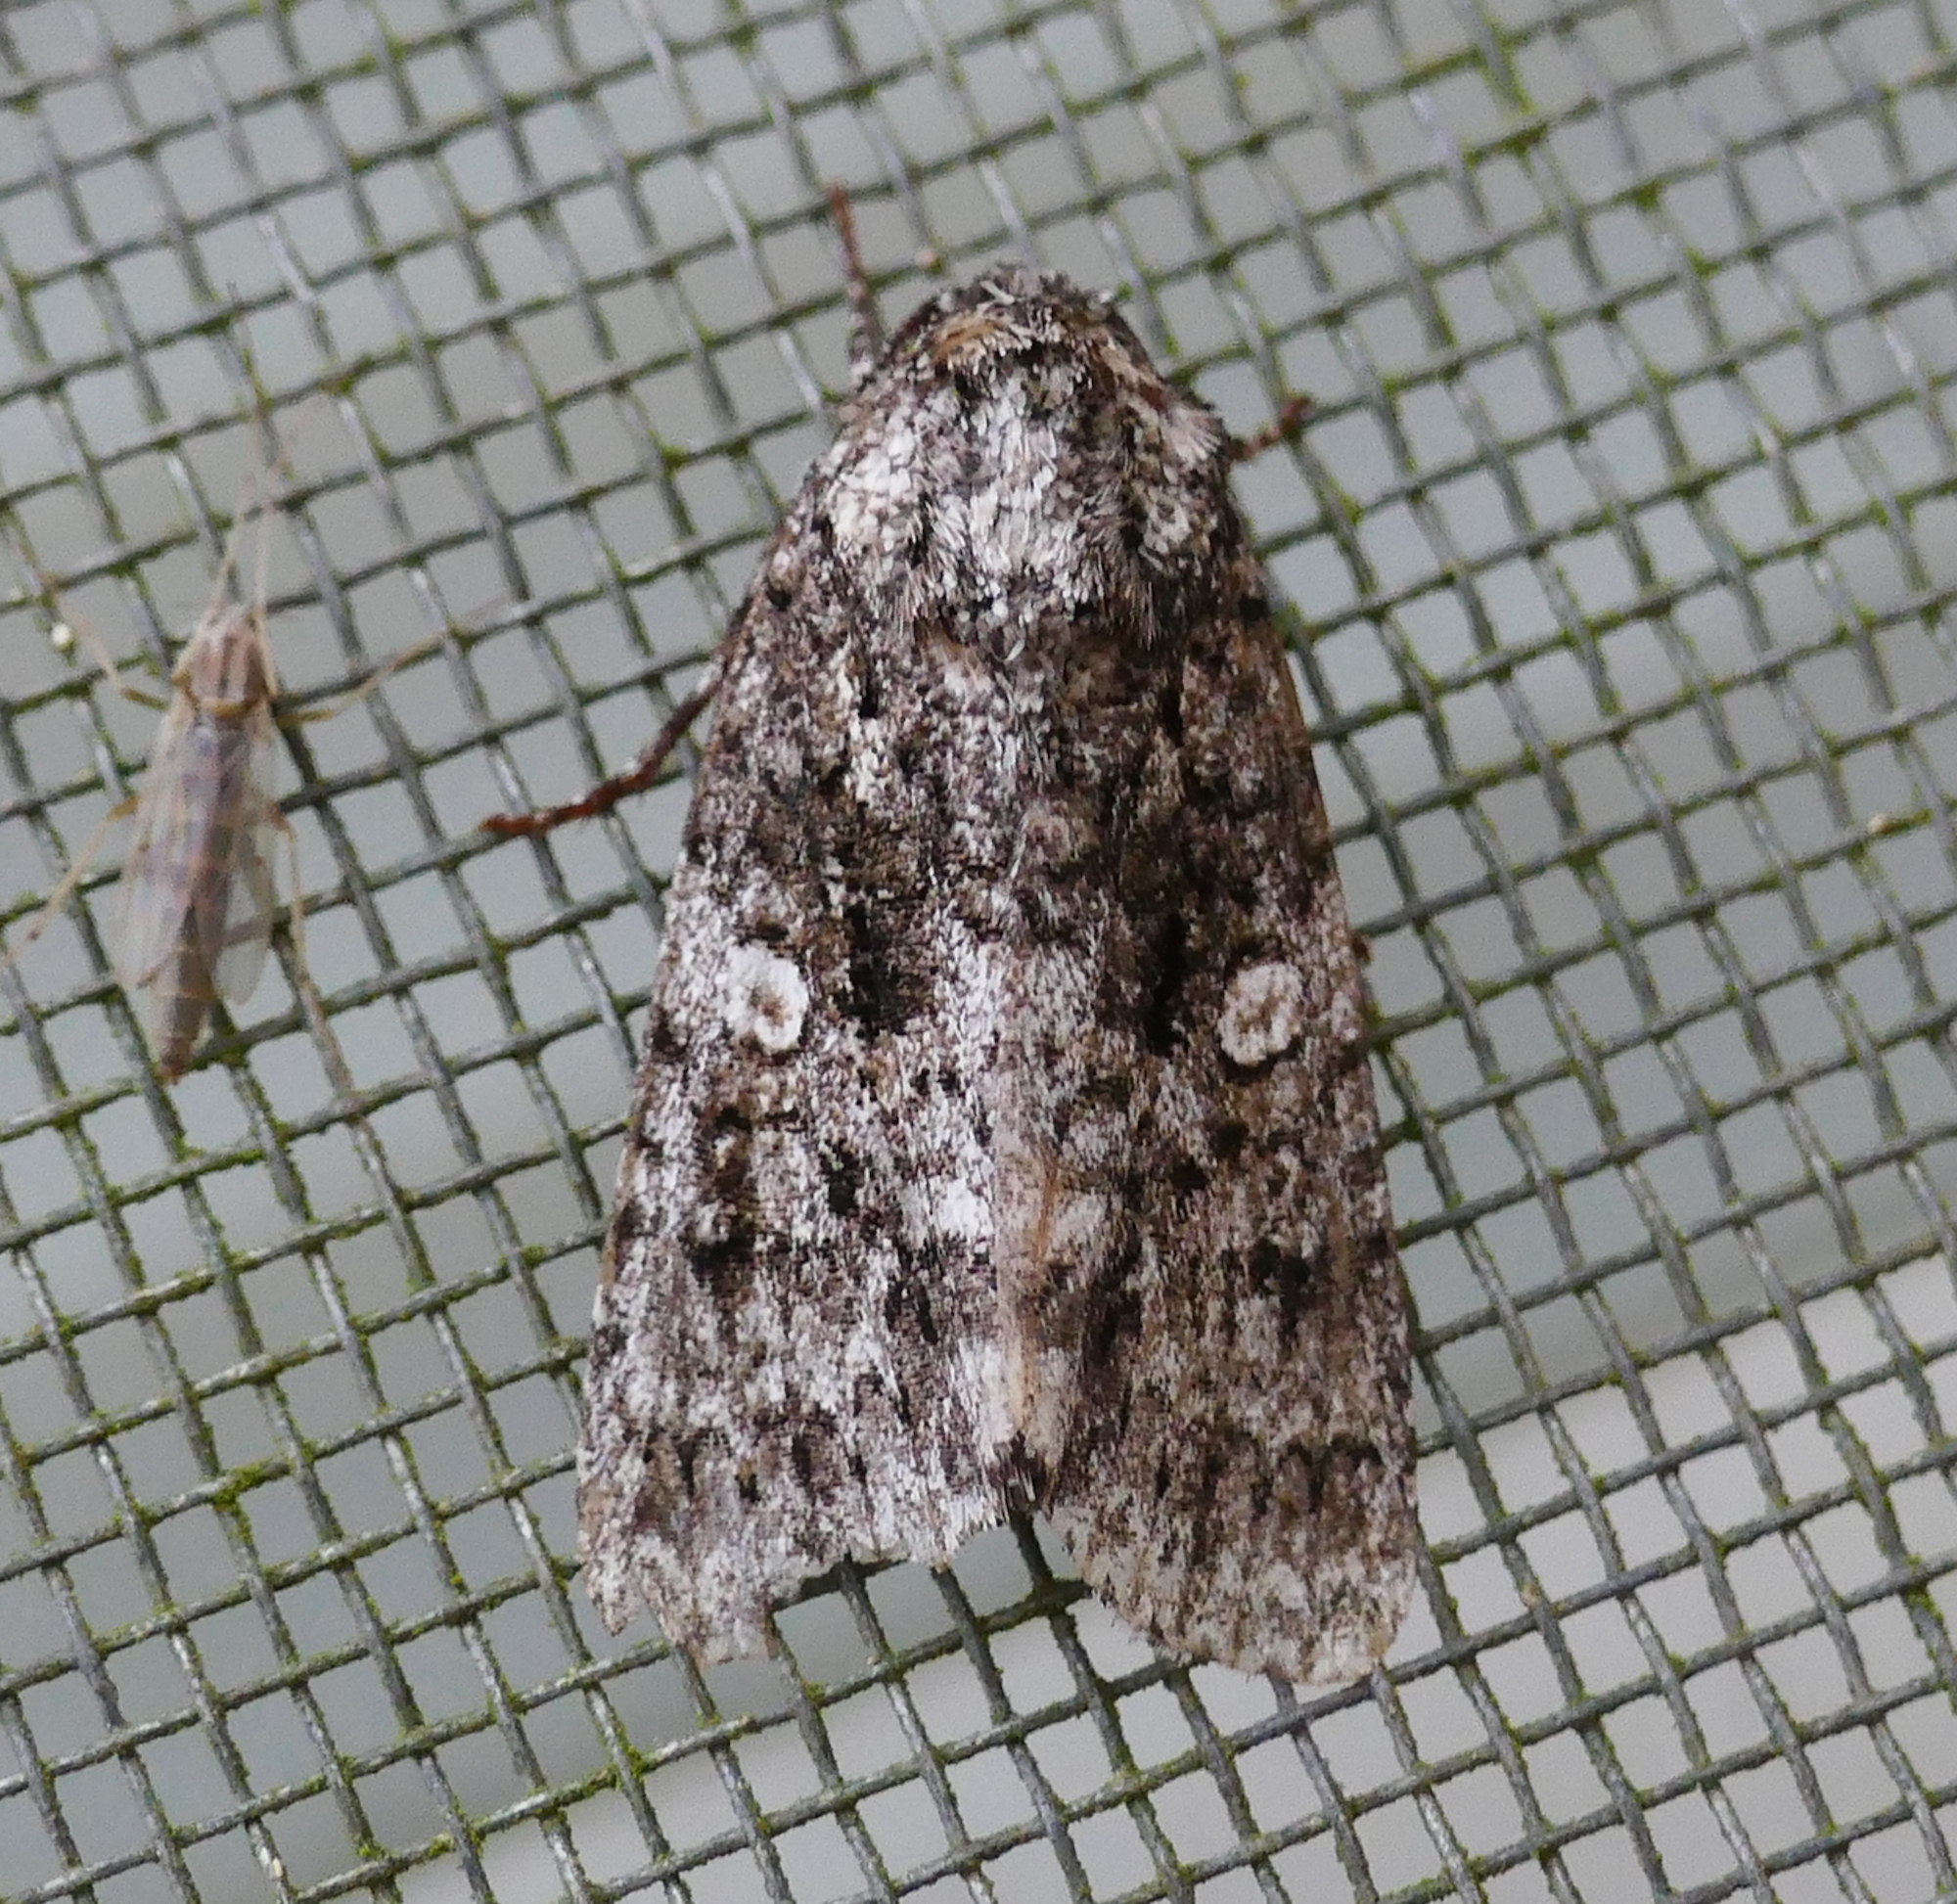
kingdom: Animalia
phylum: Arthropoda
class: Insecta
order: Lepidoptera
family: Noctuidae
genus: Acronicta
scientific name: Acronicta afflicta
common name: Afflicted dagger moth
